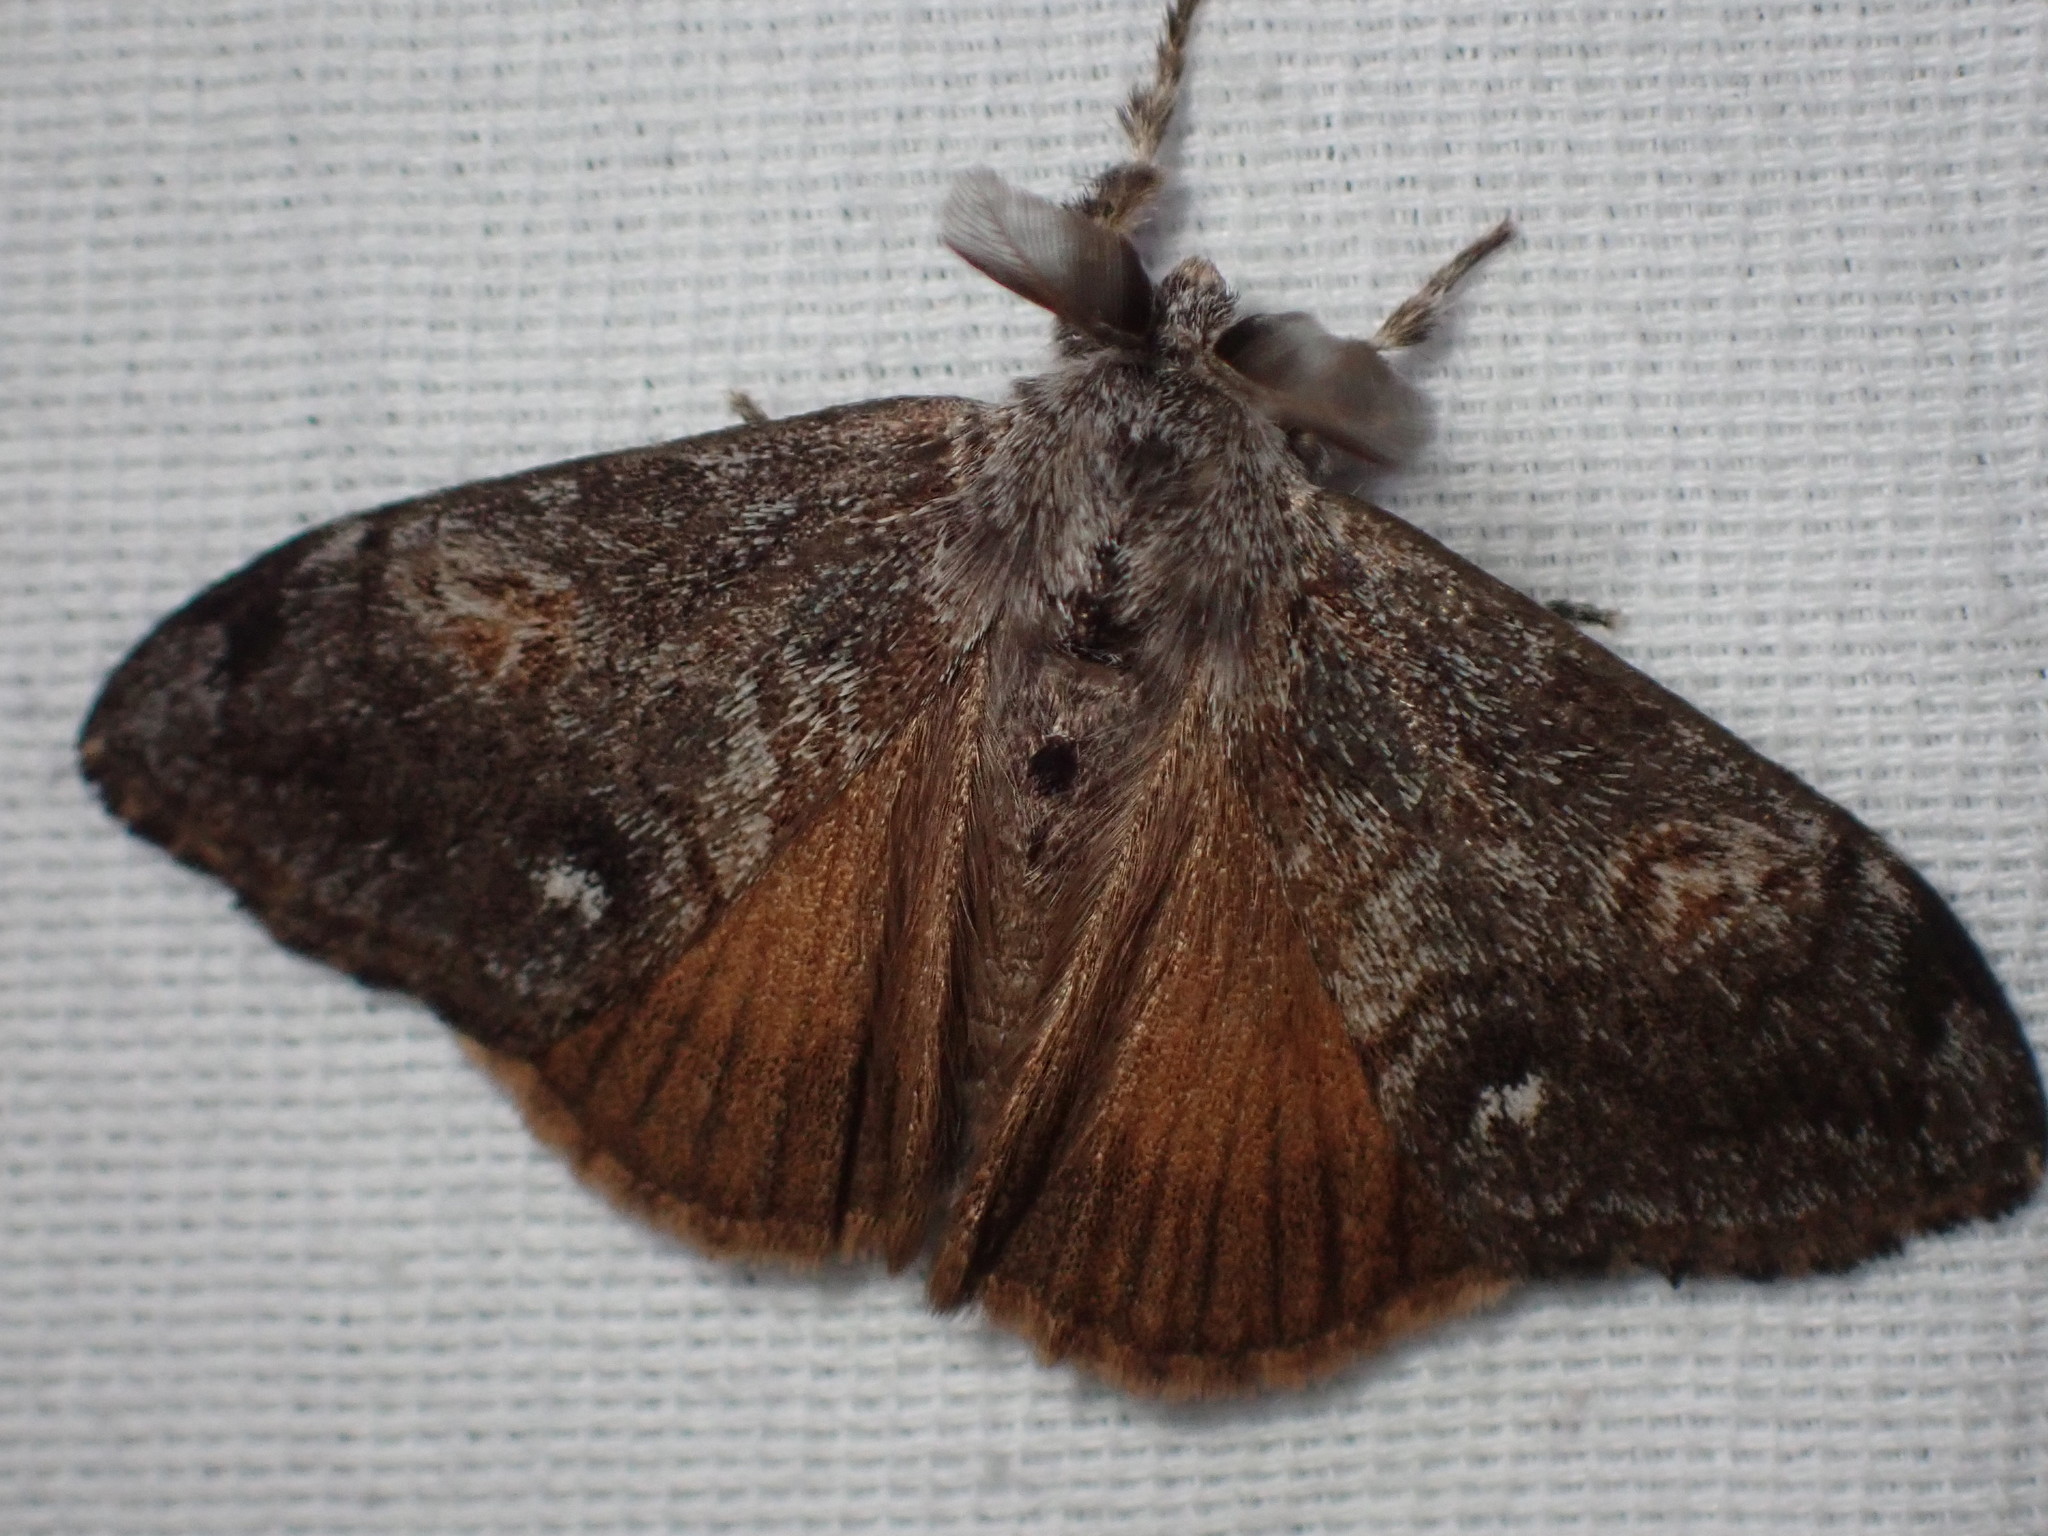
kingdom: Animalia
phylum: Arthropoda
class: Insecta
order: Lepidoptera
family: Erebidae
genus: Orgyia
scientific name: Orgyia pseudotsugata
